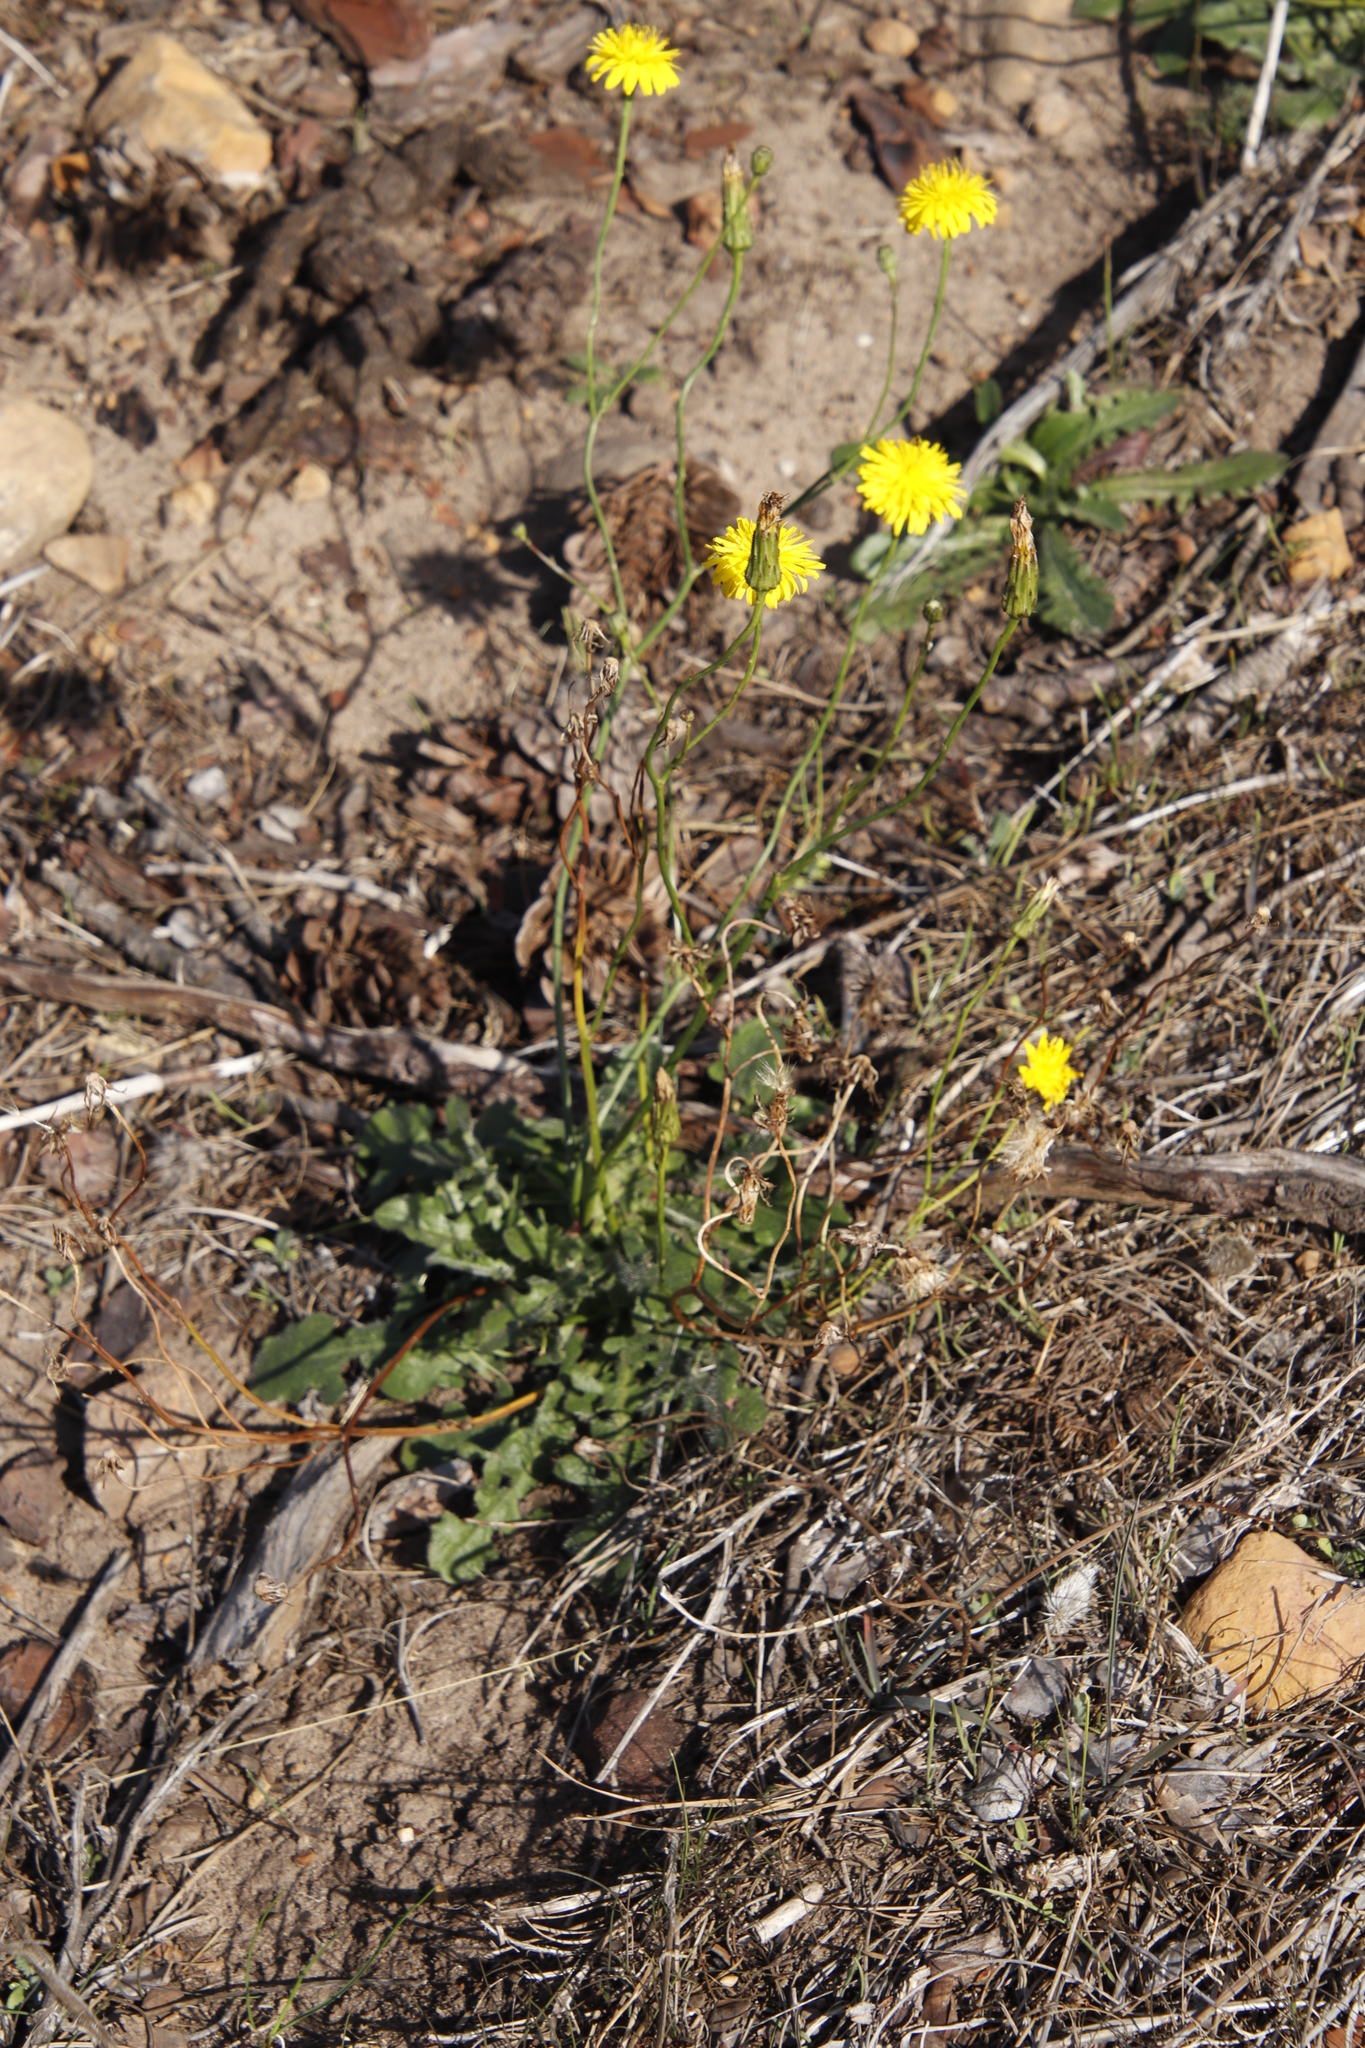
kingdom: Plantae
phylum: Tracheophyta
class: Magnoliopsida
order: Asterales
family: Asteraceae
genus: Hypochaeris
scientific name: Hypochaeris radicata
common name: Flatweed
